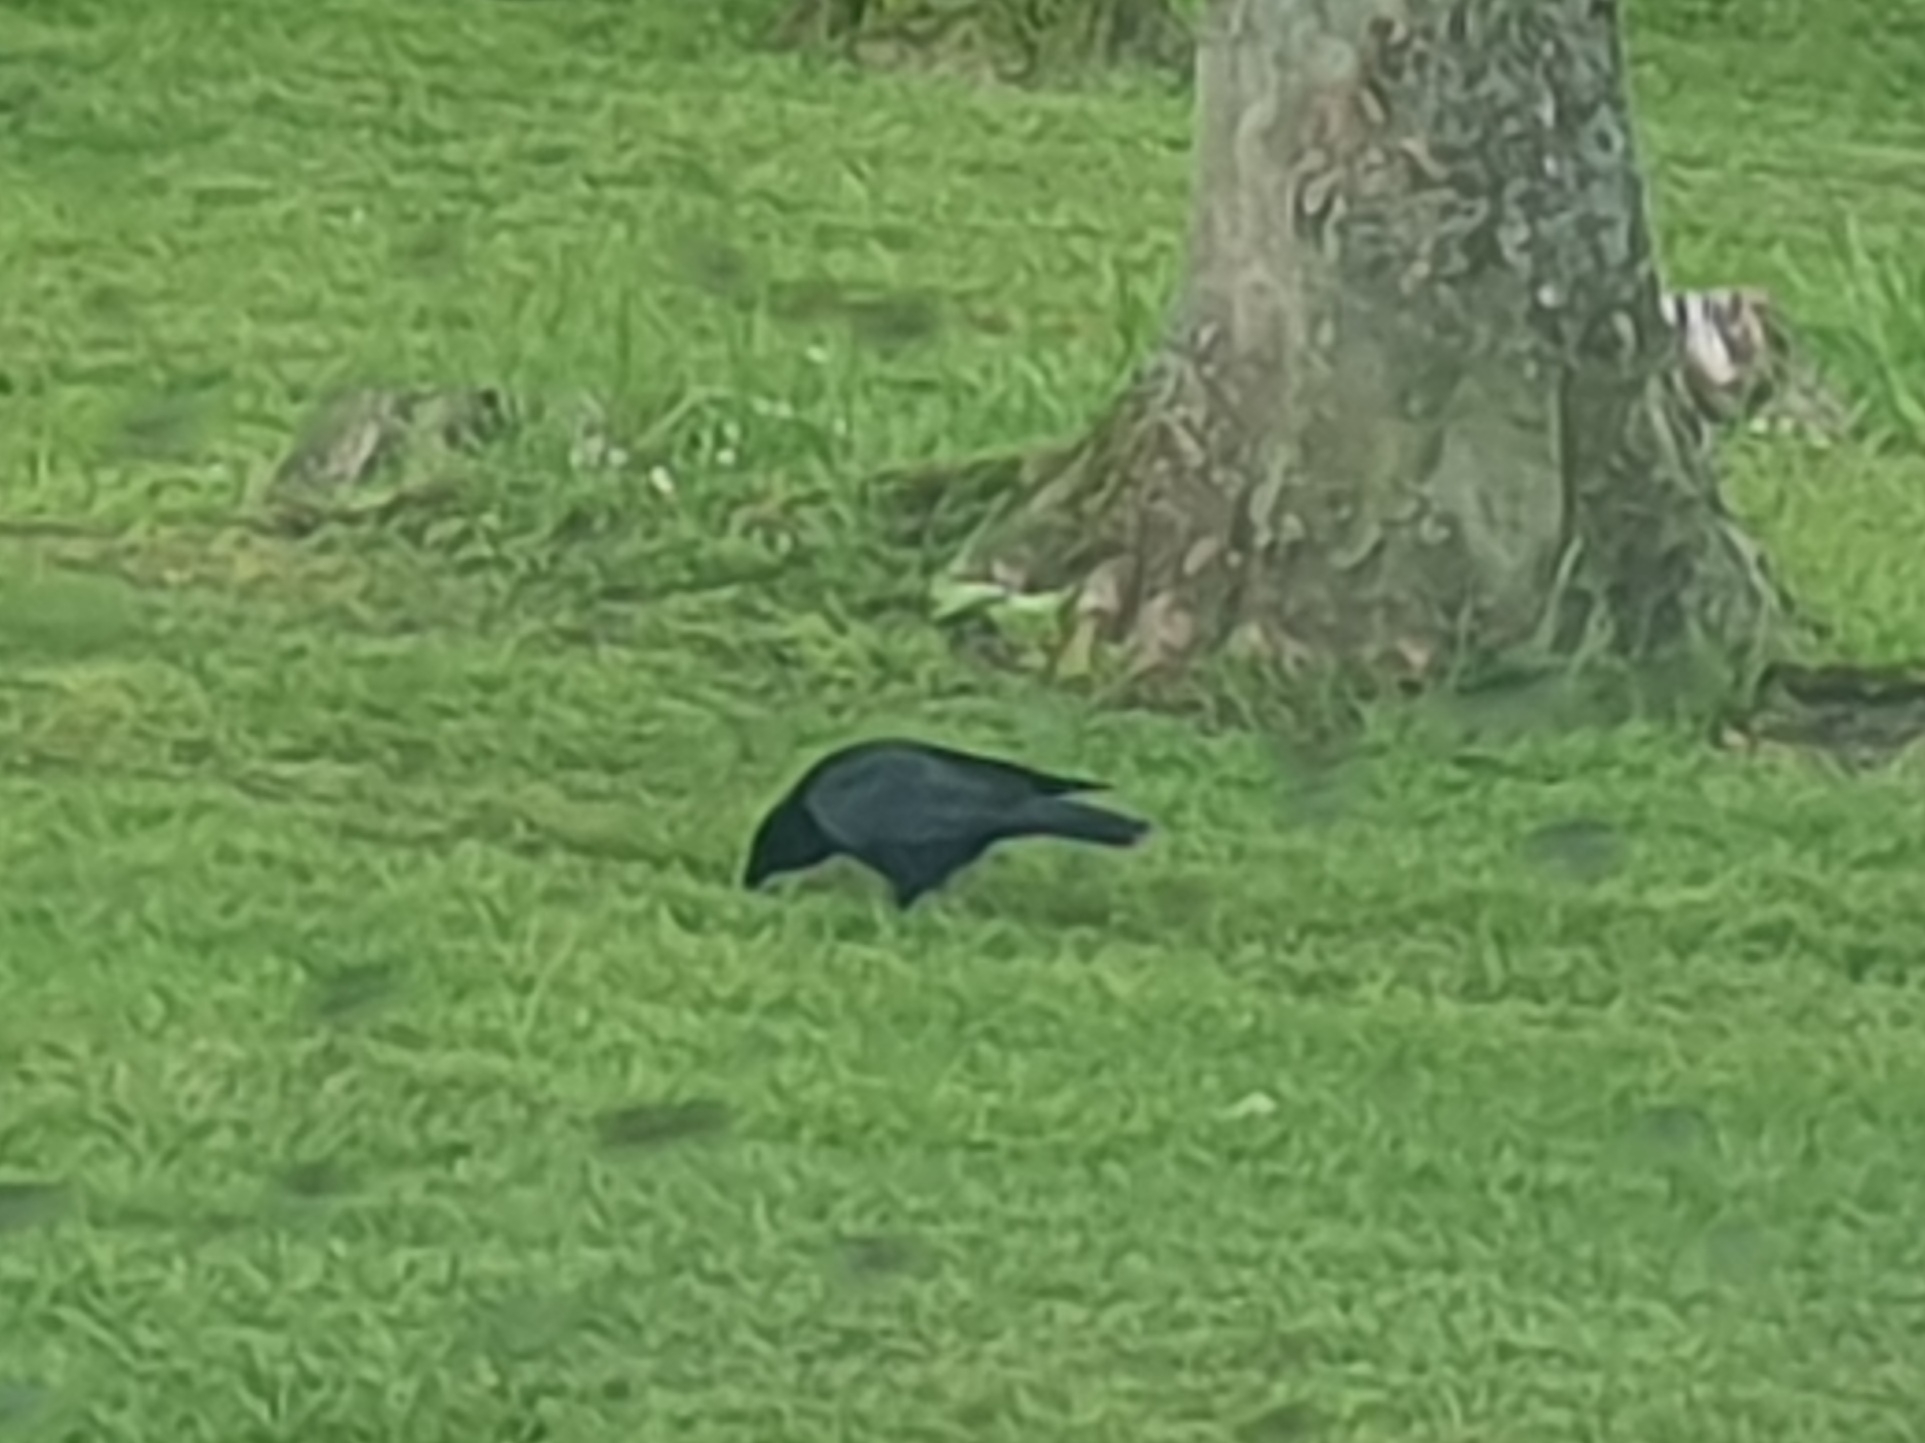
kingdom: Animalia
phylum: Chordata
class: Aves
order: Passeriformes
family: Corvidae
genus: Corvus
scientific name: Corvus corone
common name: Carrion crow
